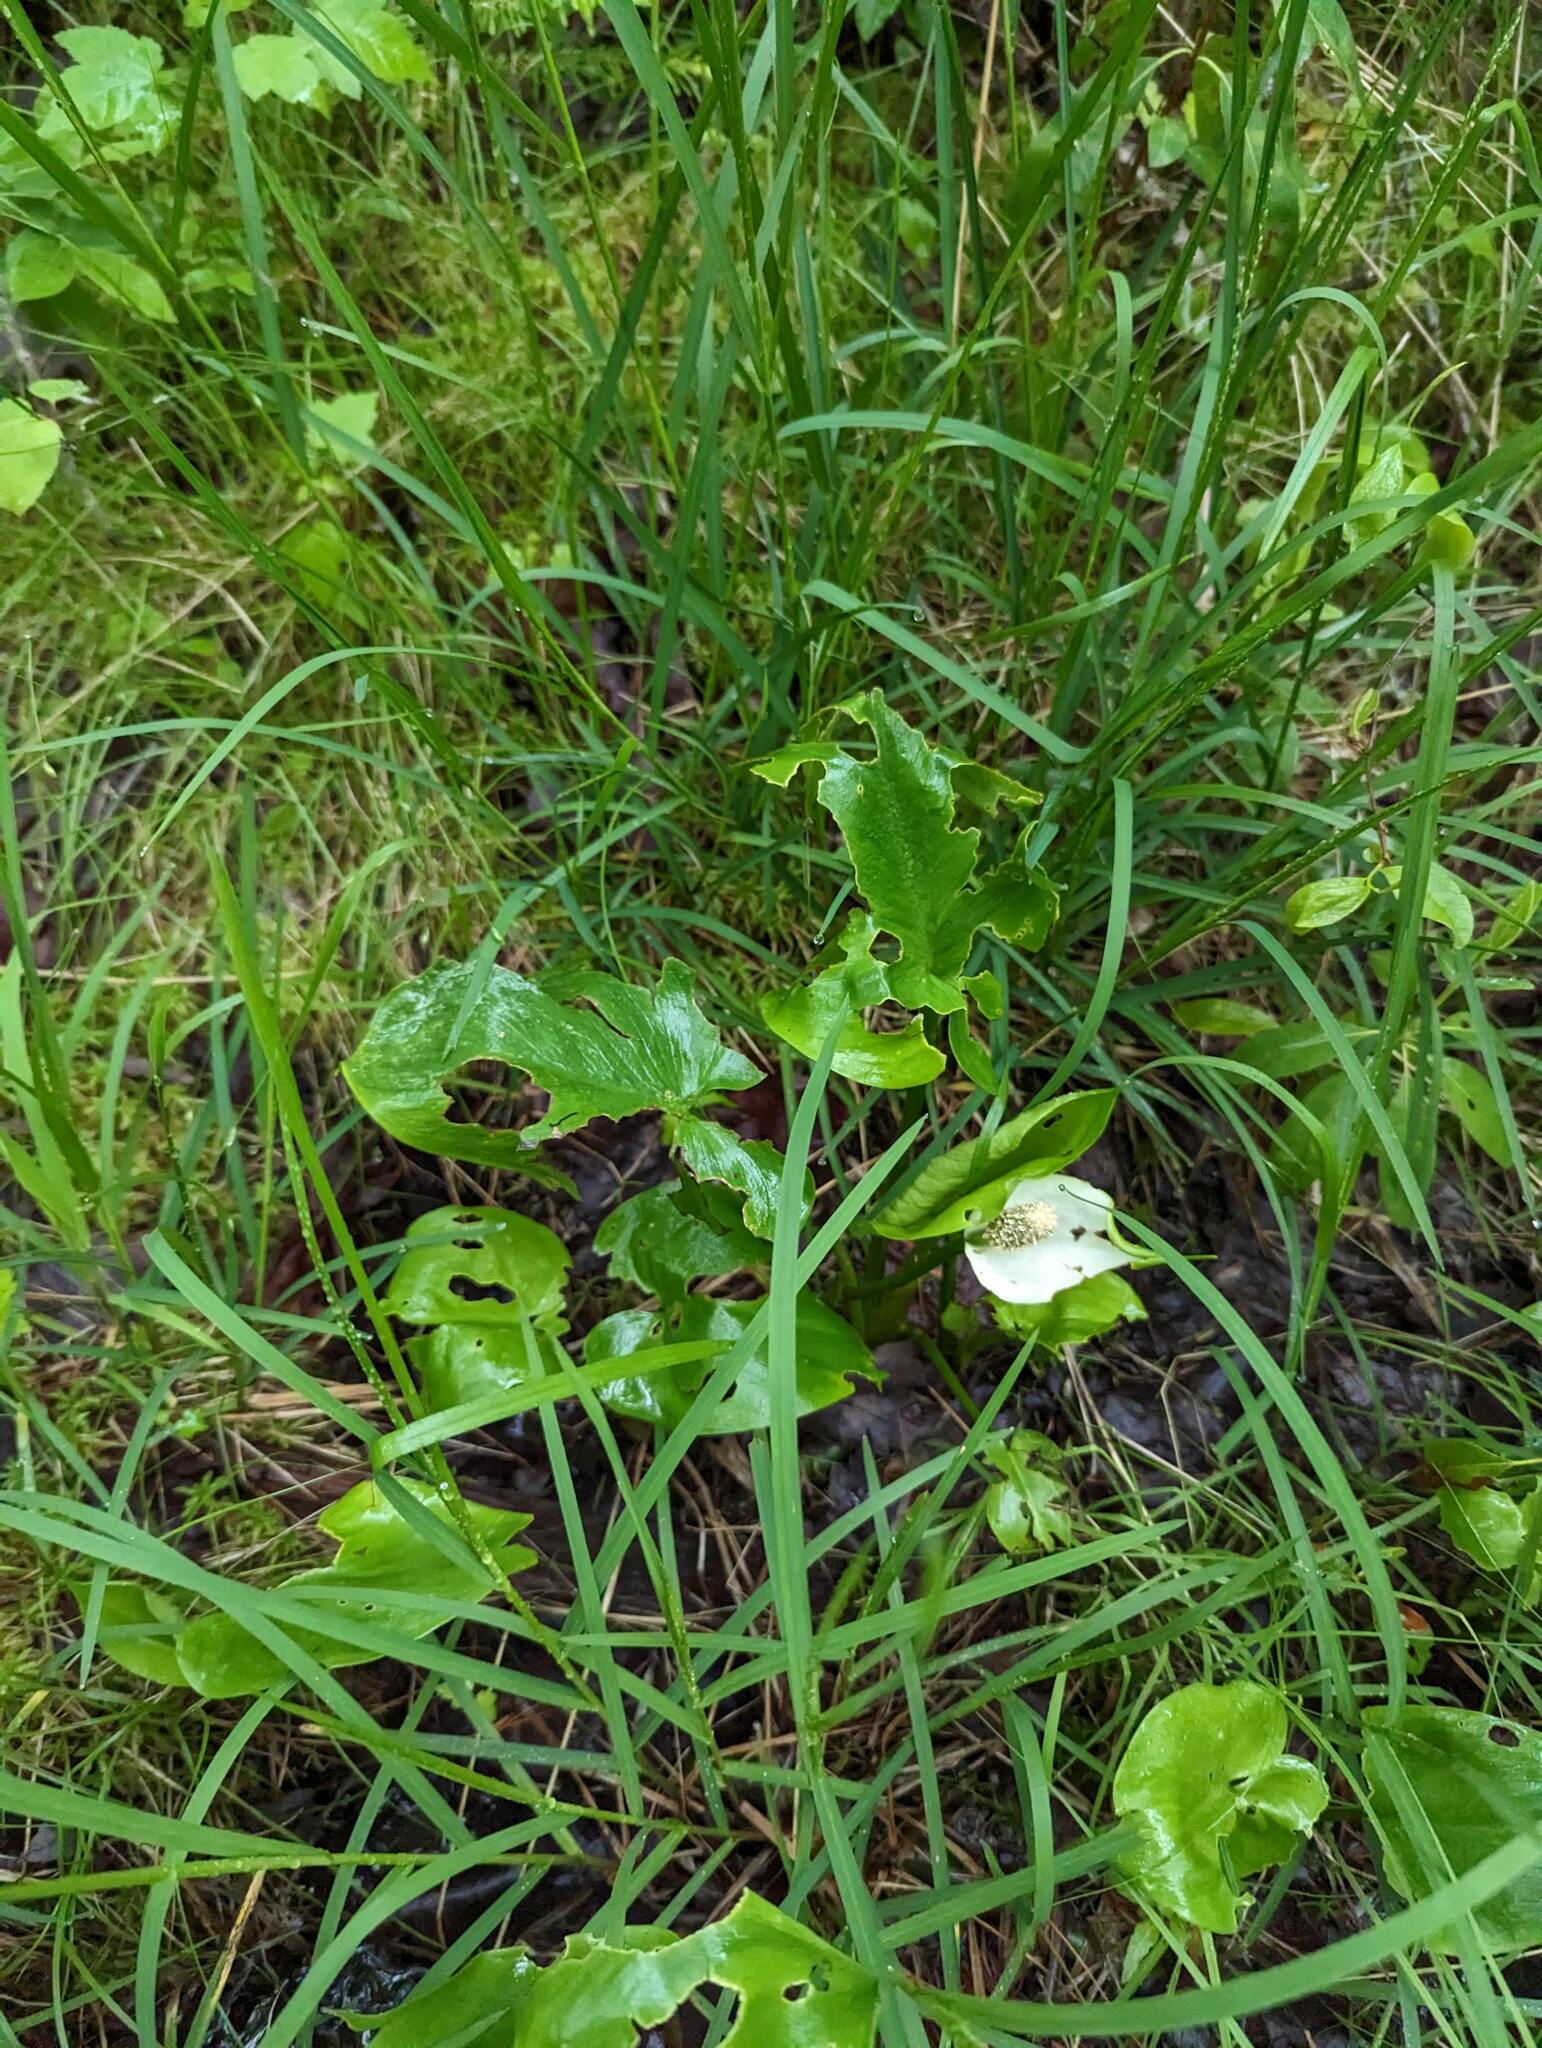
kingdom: Plantae
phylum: Tracheophyta
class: Liliopsida
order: Alismatales
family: Araceae
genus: Calla
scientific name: Calla palustris
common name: Bog arum
